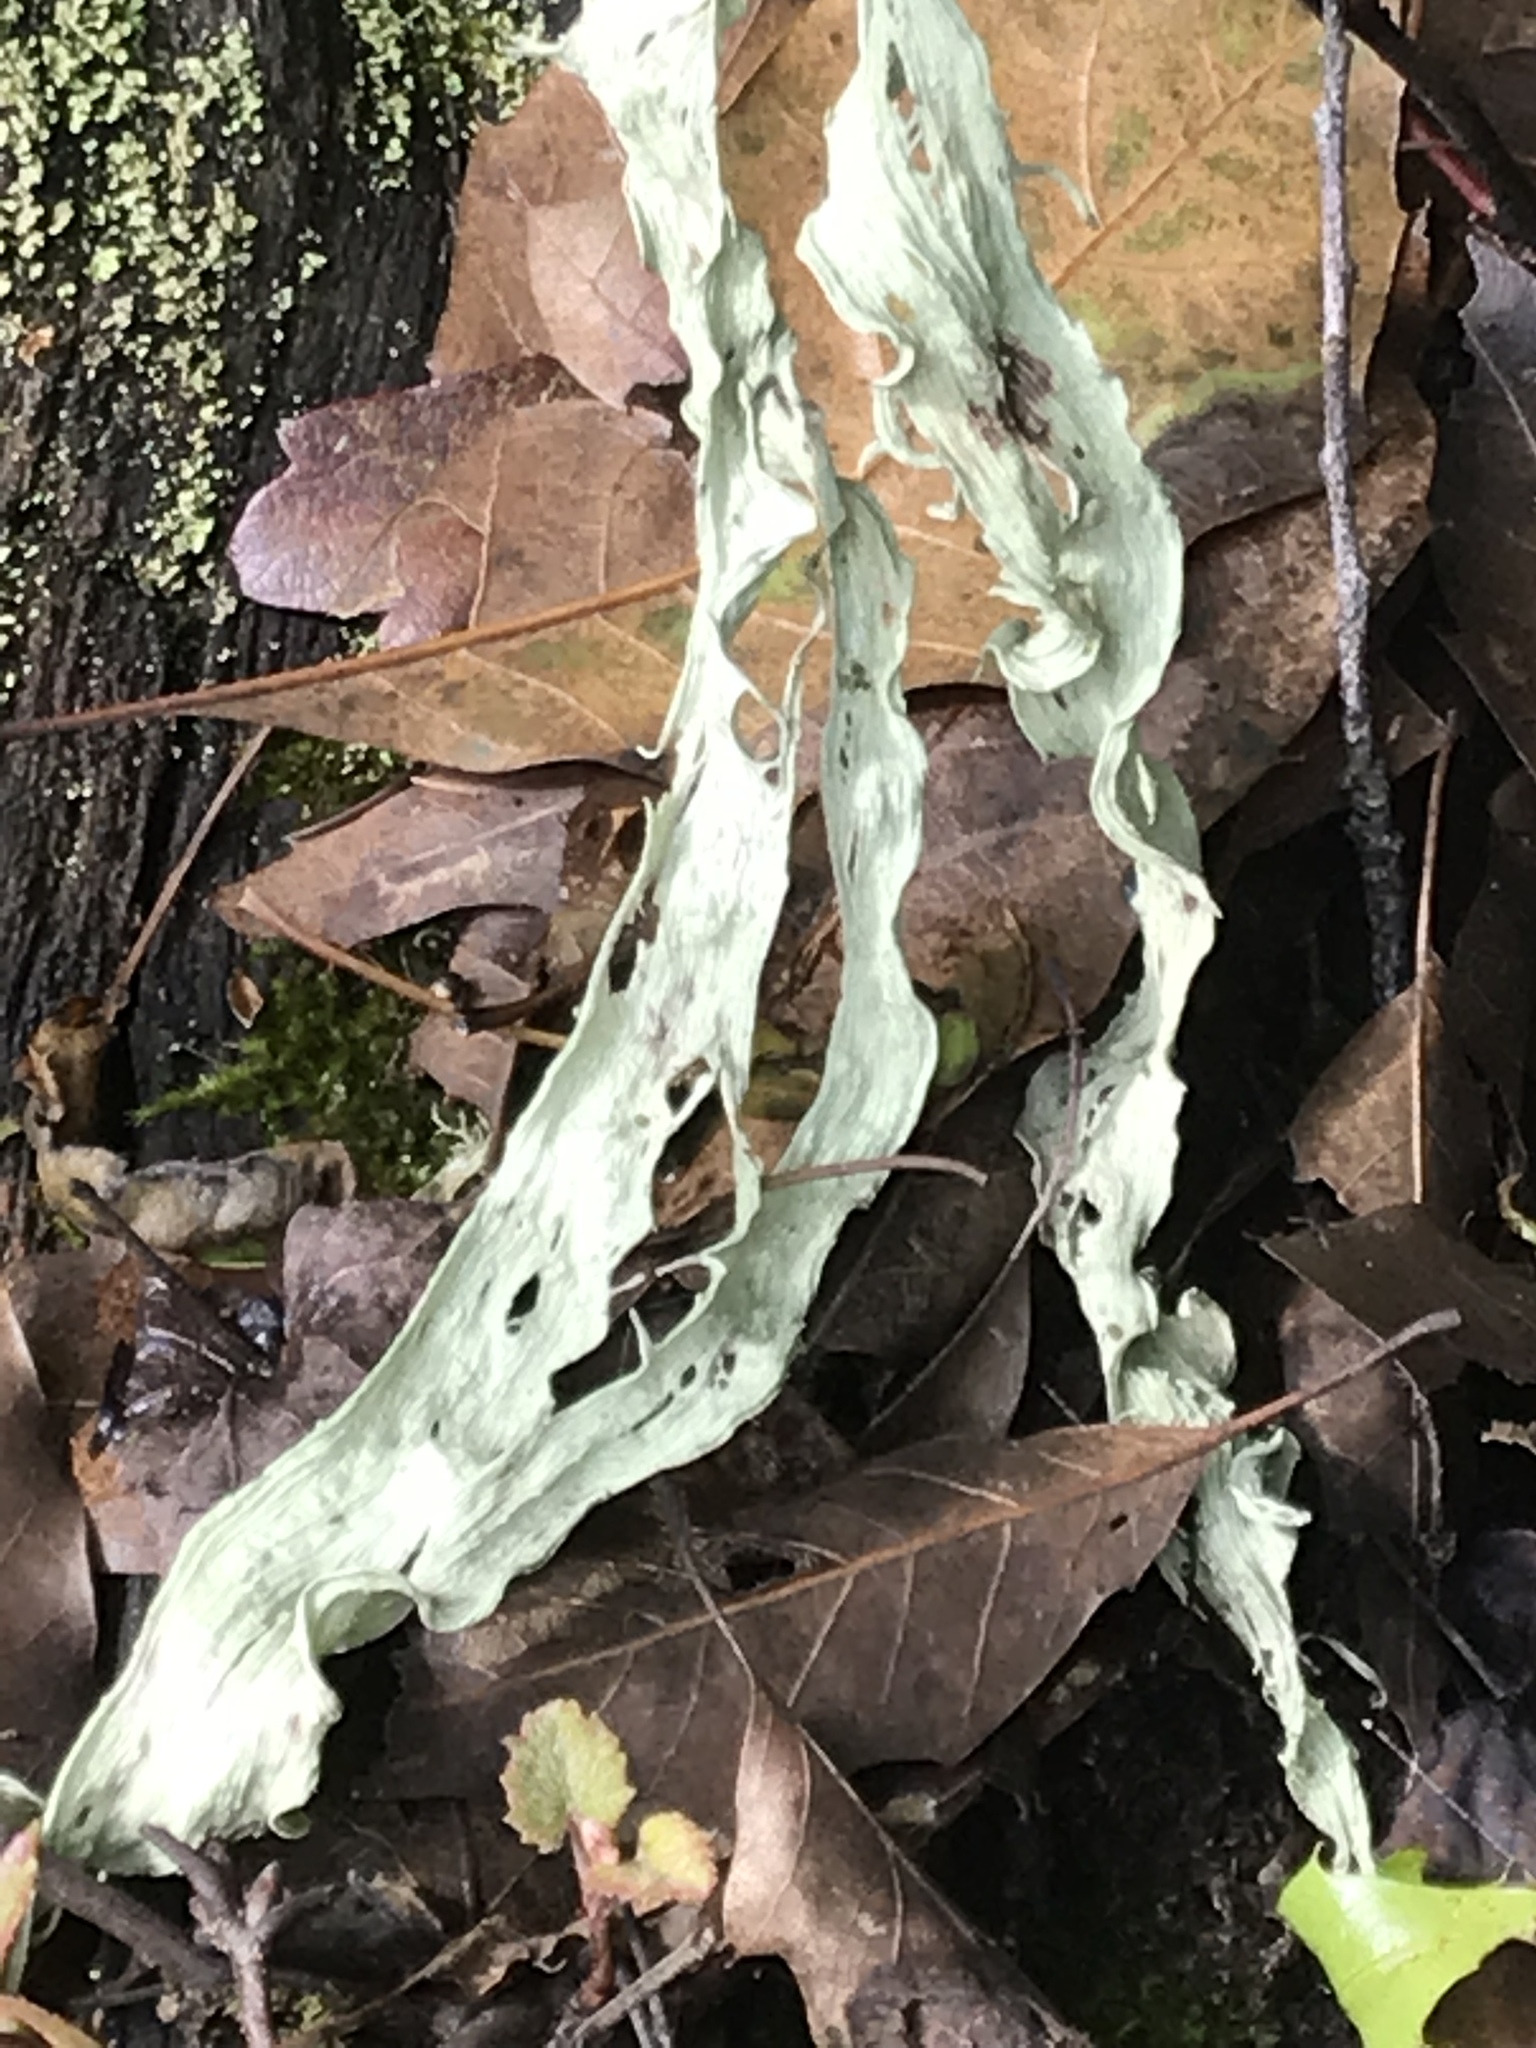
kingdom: Fungi
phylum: Ascomycota
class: Lecanoromycetes
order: Lecanorales
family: Ramalinaceae
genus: Ramalina
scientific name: Ramalina
